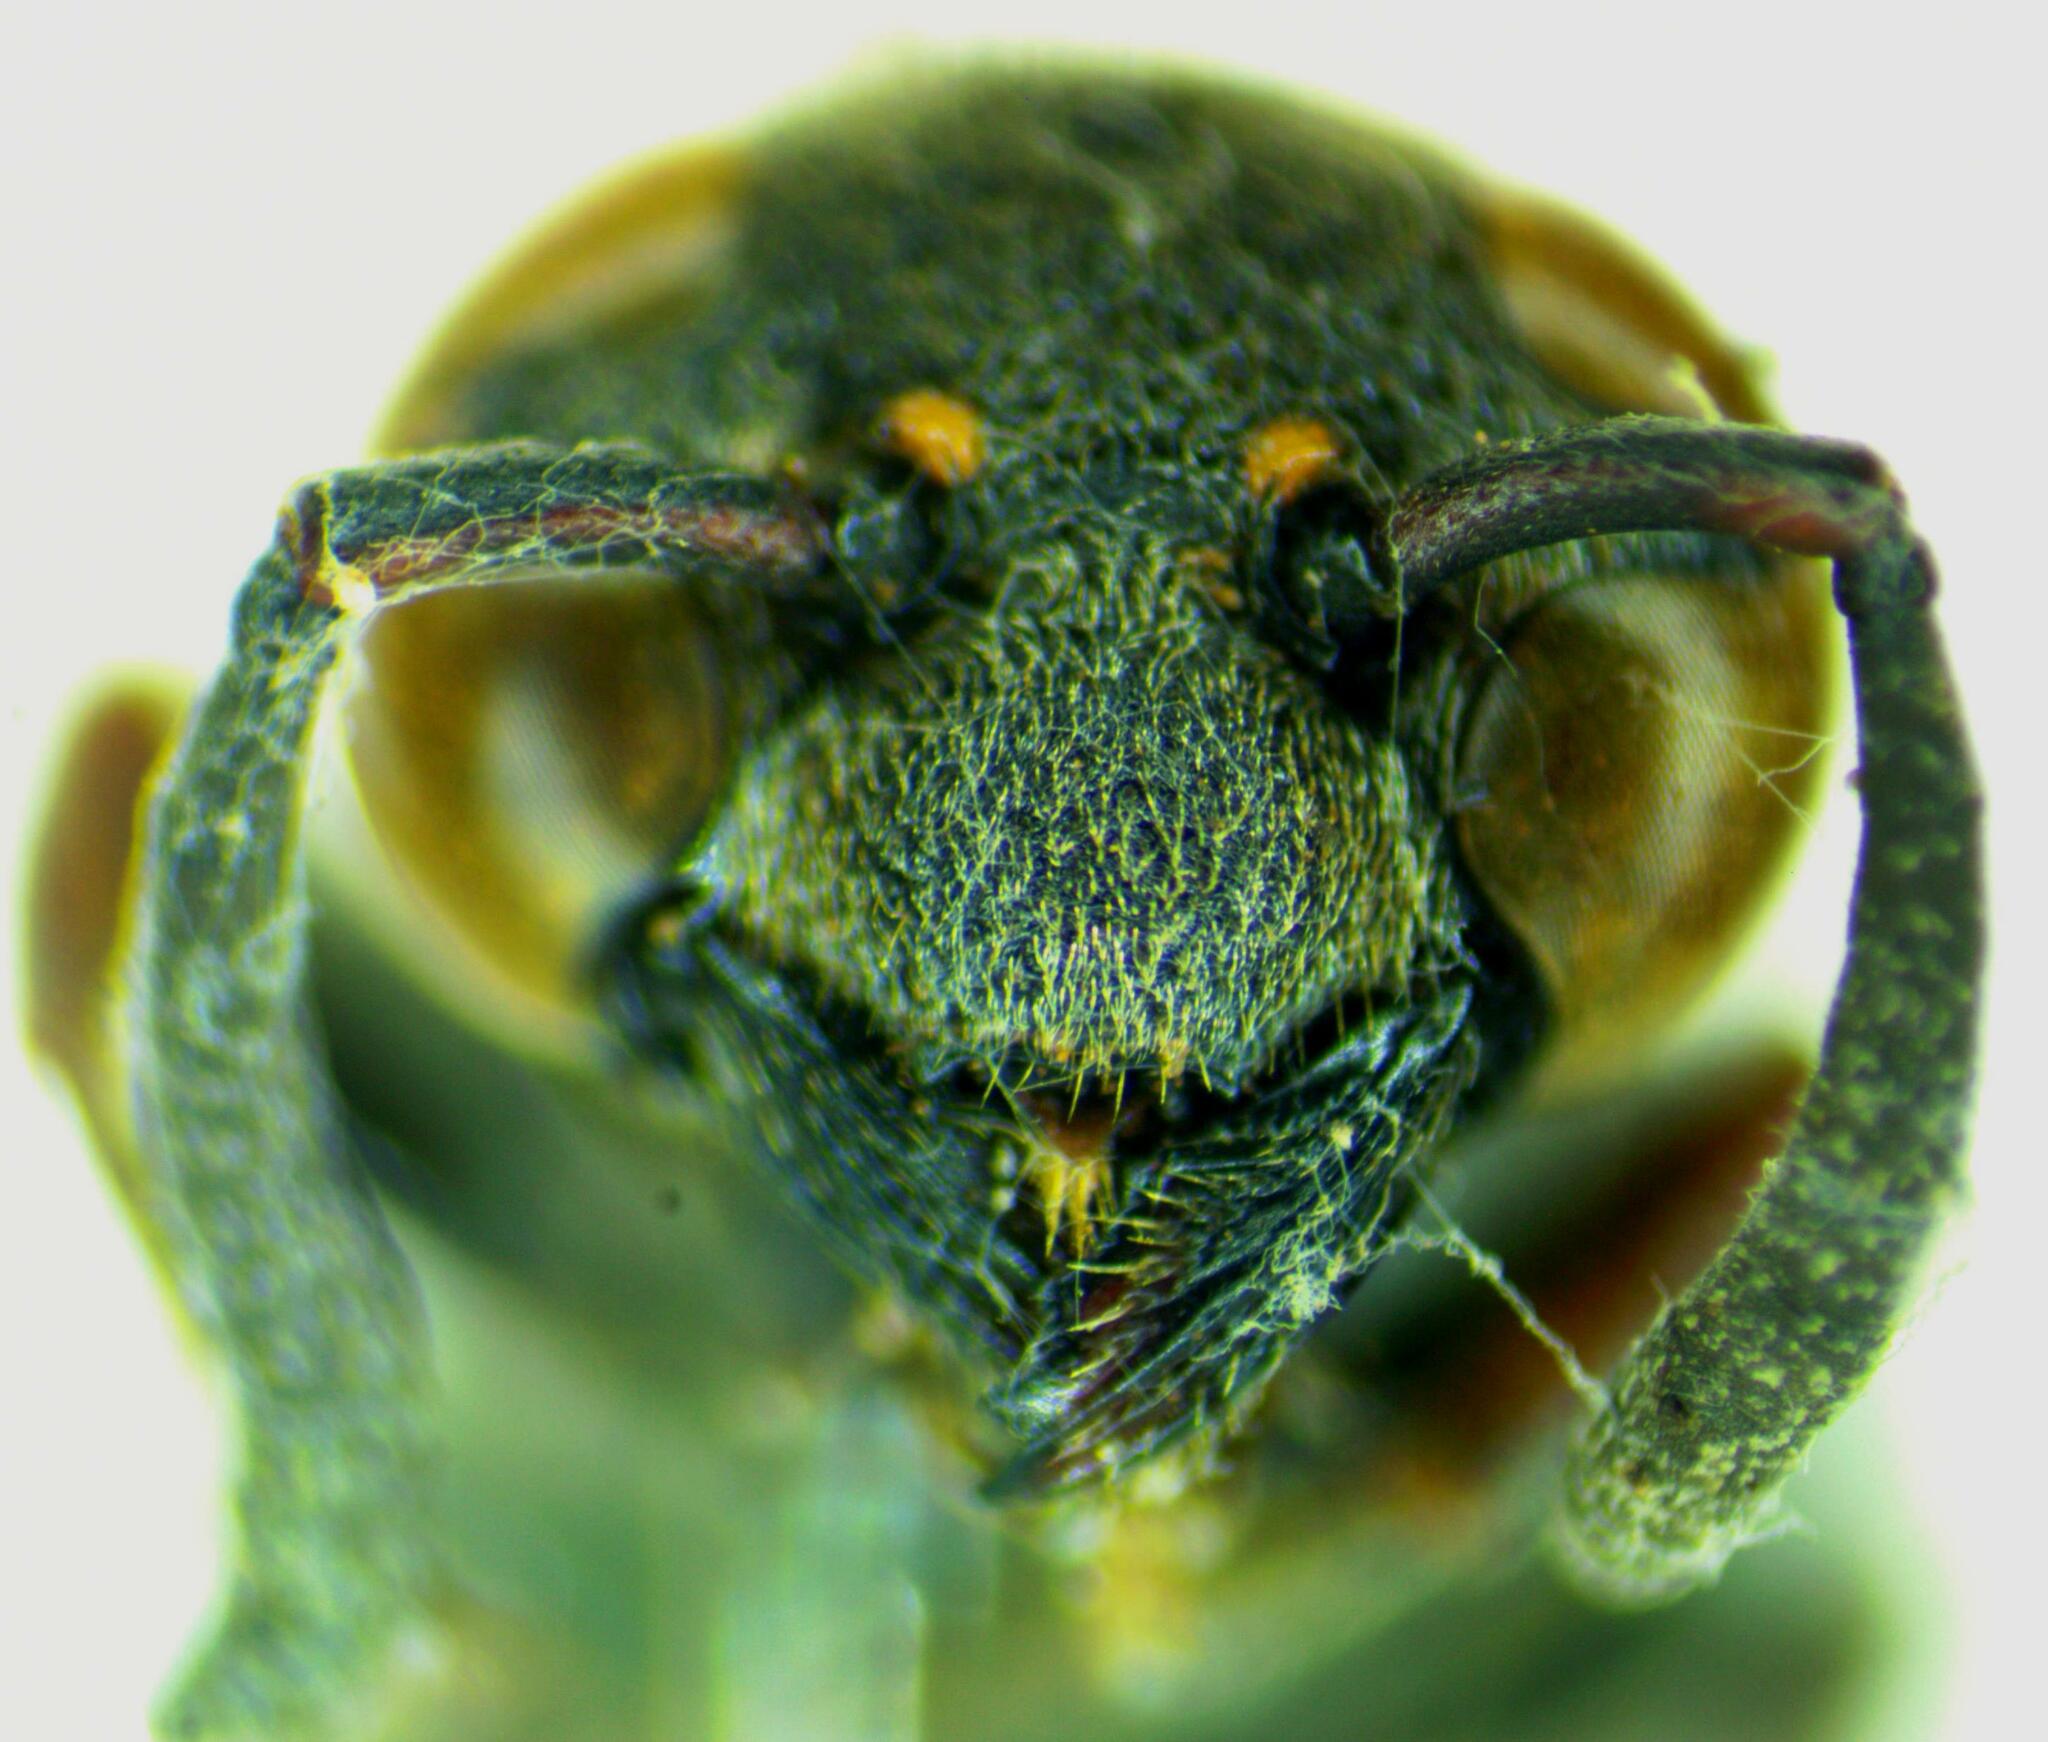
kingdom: Animalia
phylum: Arthropoda
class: Insecta
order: Hymenoptera
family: Eumenidae
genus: Zethus
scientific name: Zethus diminutus
